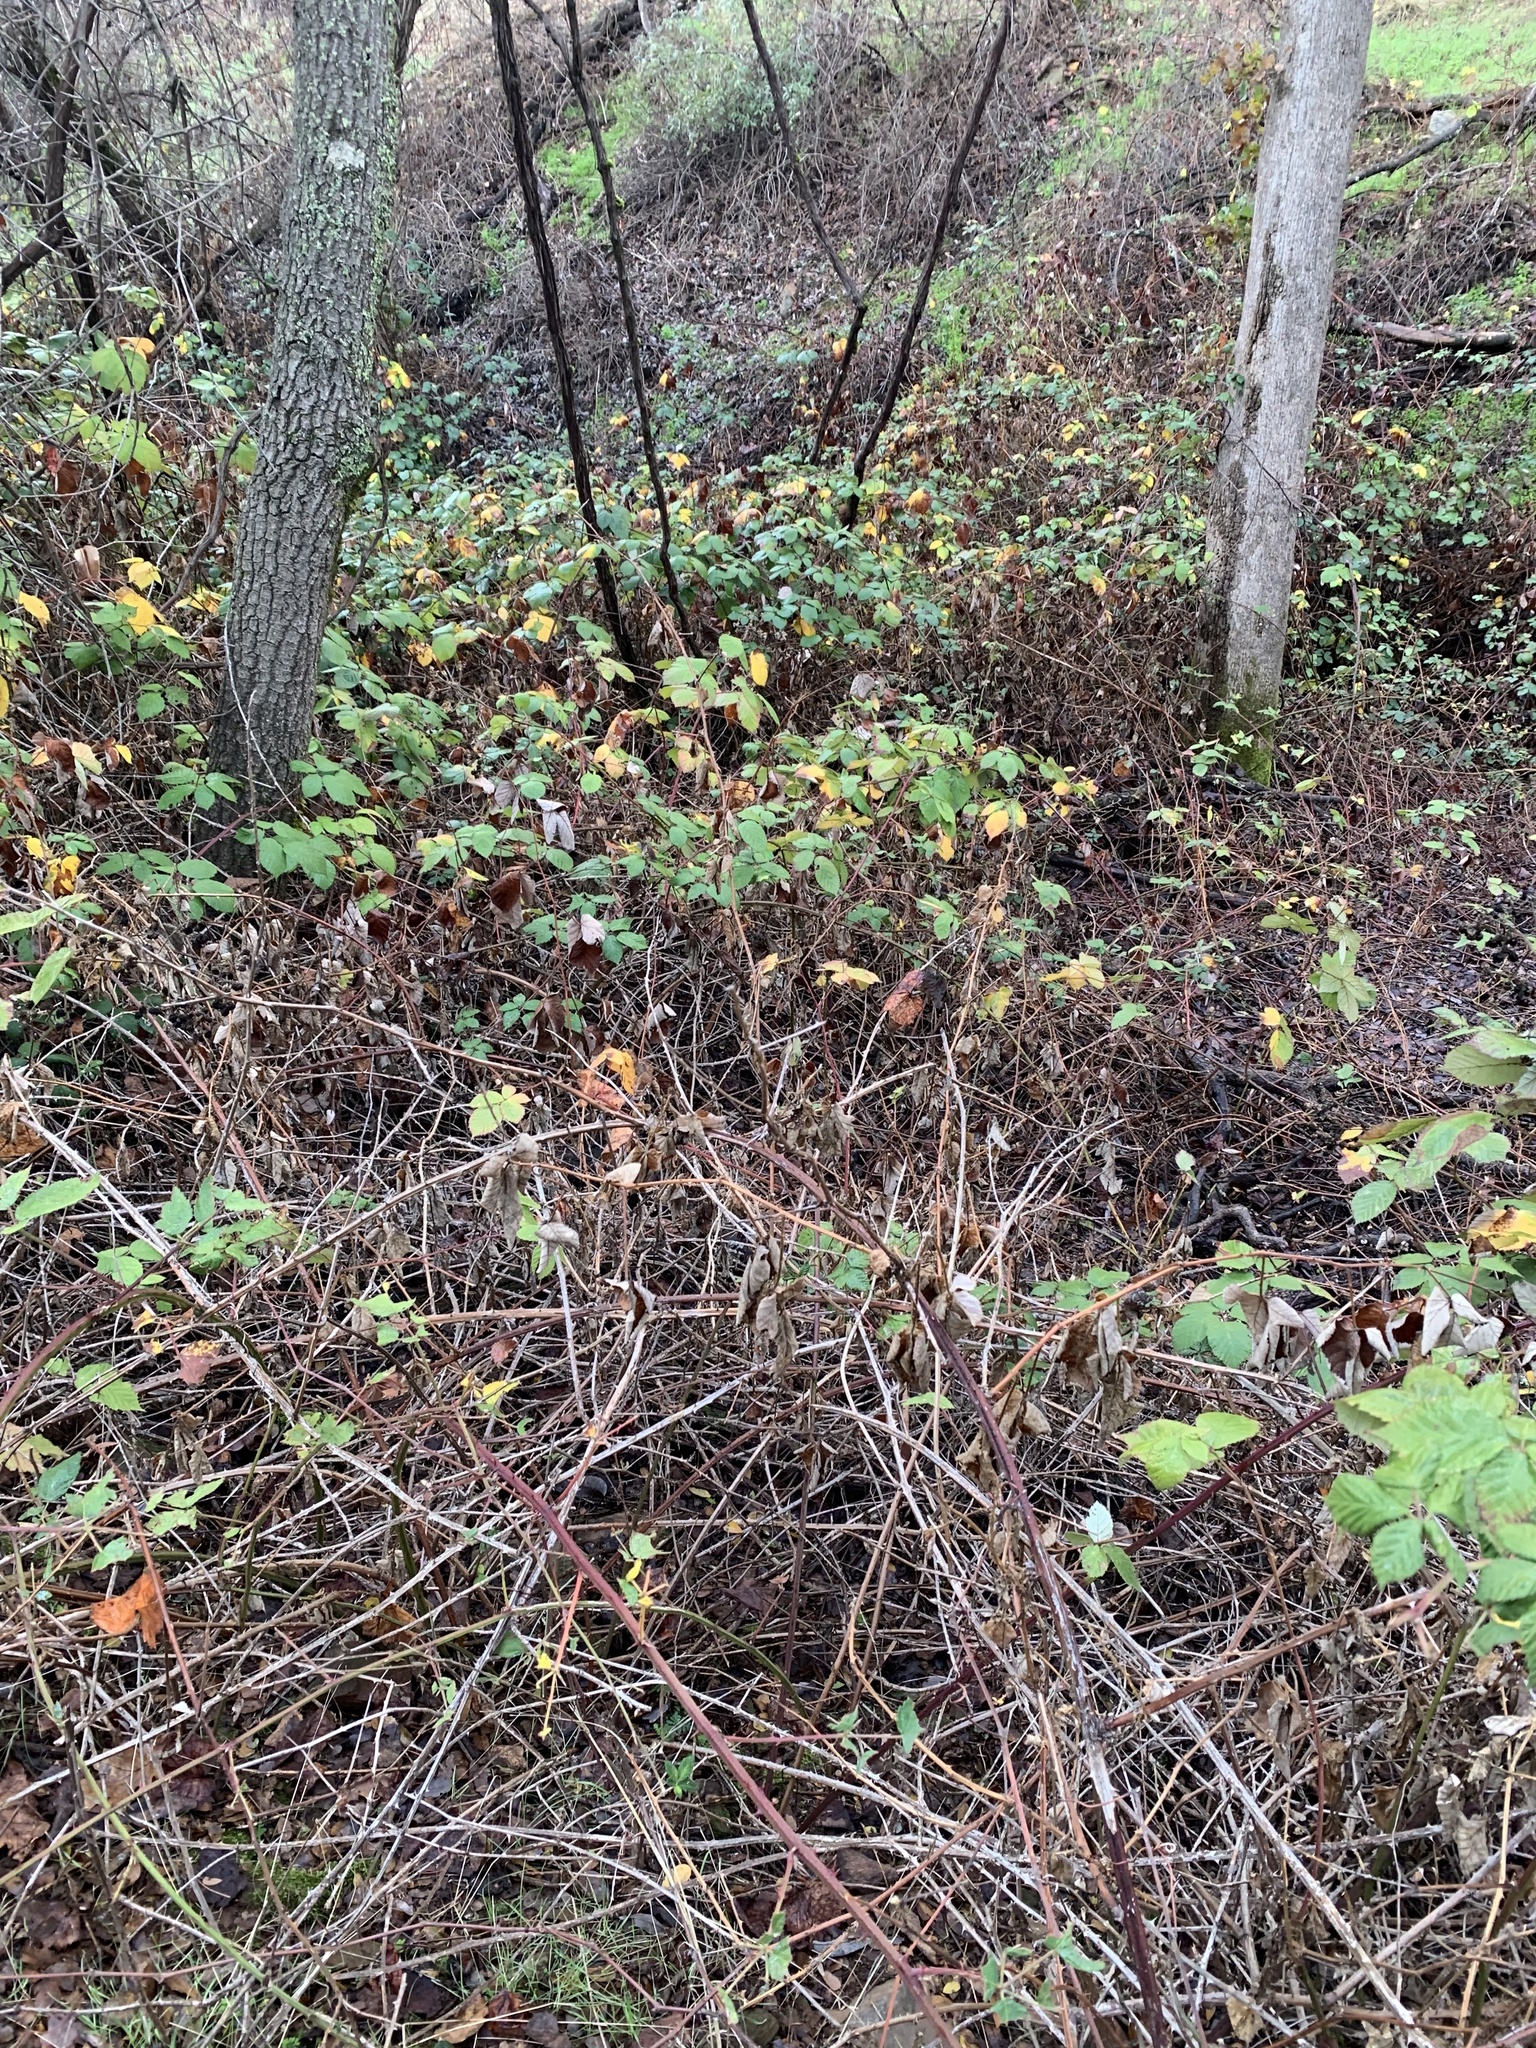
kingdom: Plantae
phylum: Tracheophyta
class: Magnoliopsida
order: Rosales
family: Rosaceae
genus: Rubus
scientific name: Rubus armeniacus
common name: Himalayan blackberry
